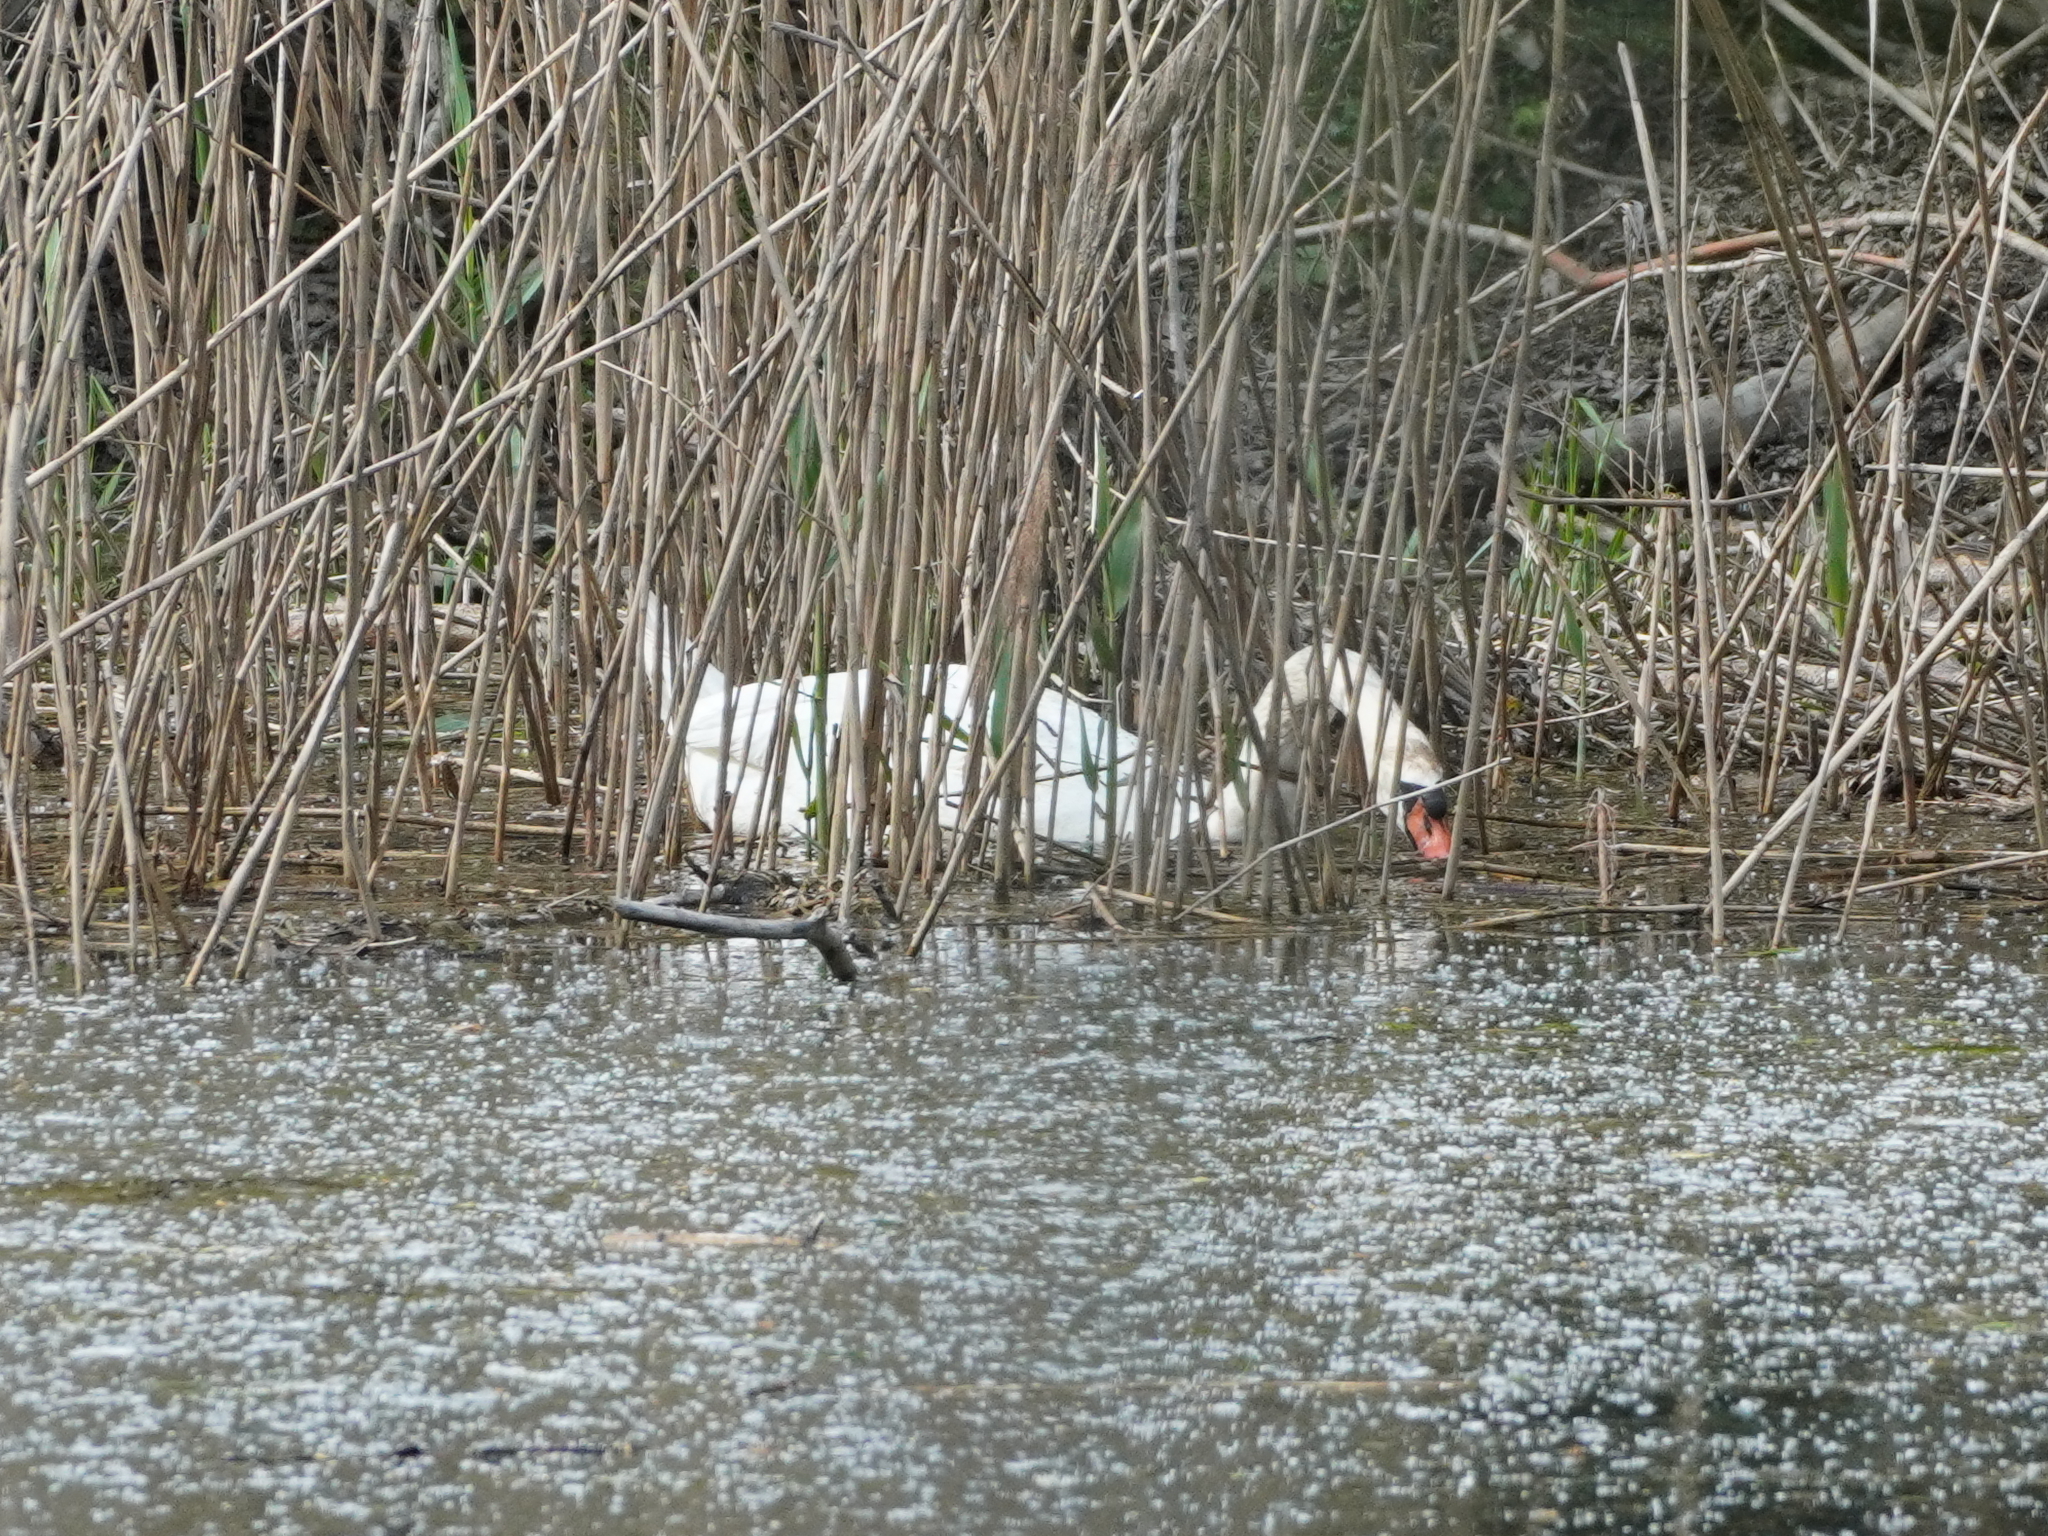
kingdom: Animalia
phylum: Chordata
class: Aves
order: Anseriformes
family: Anatidae
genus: Cygnus
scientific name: Cygnus olor
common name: Mute swan
